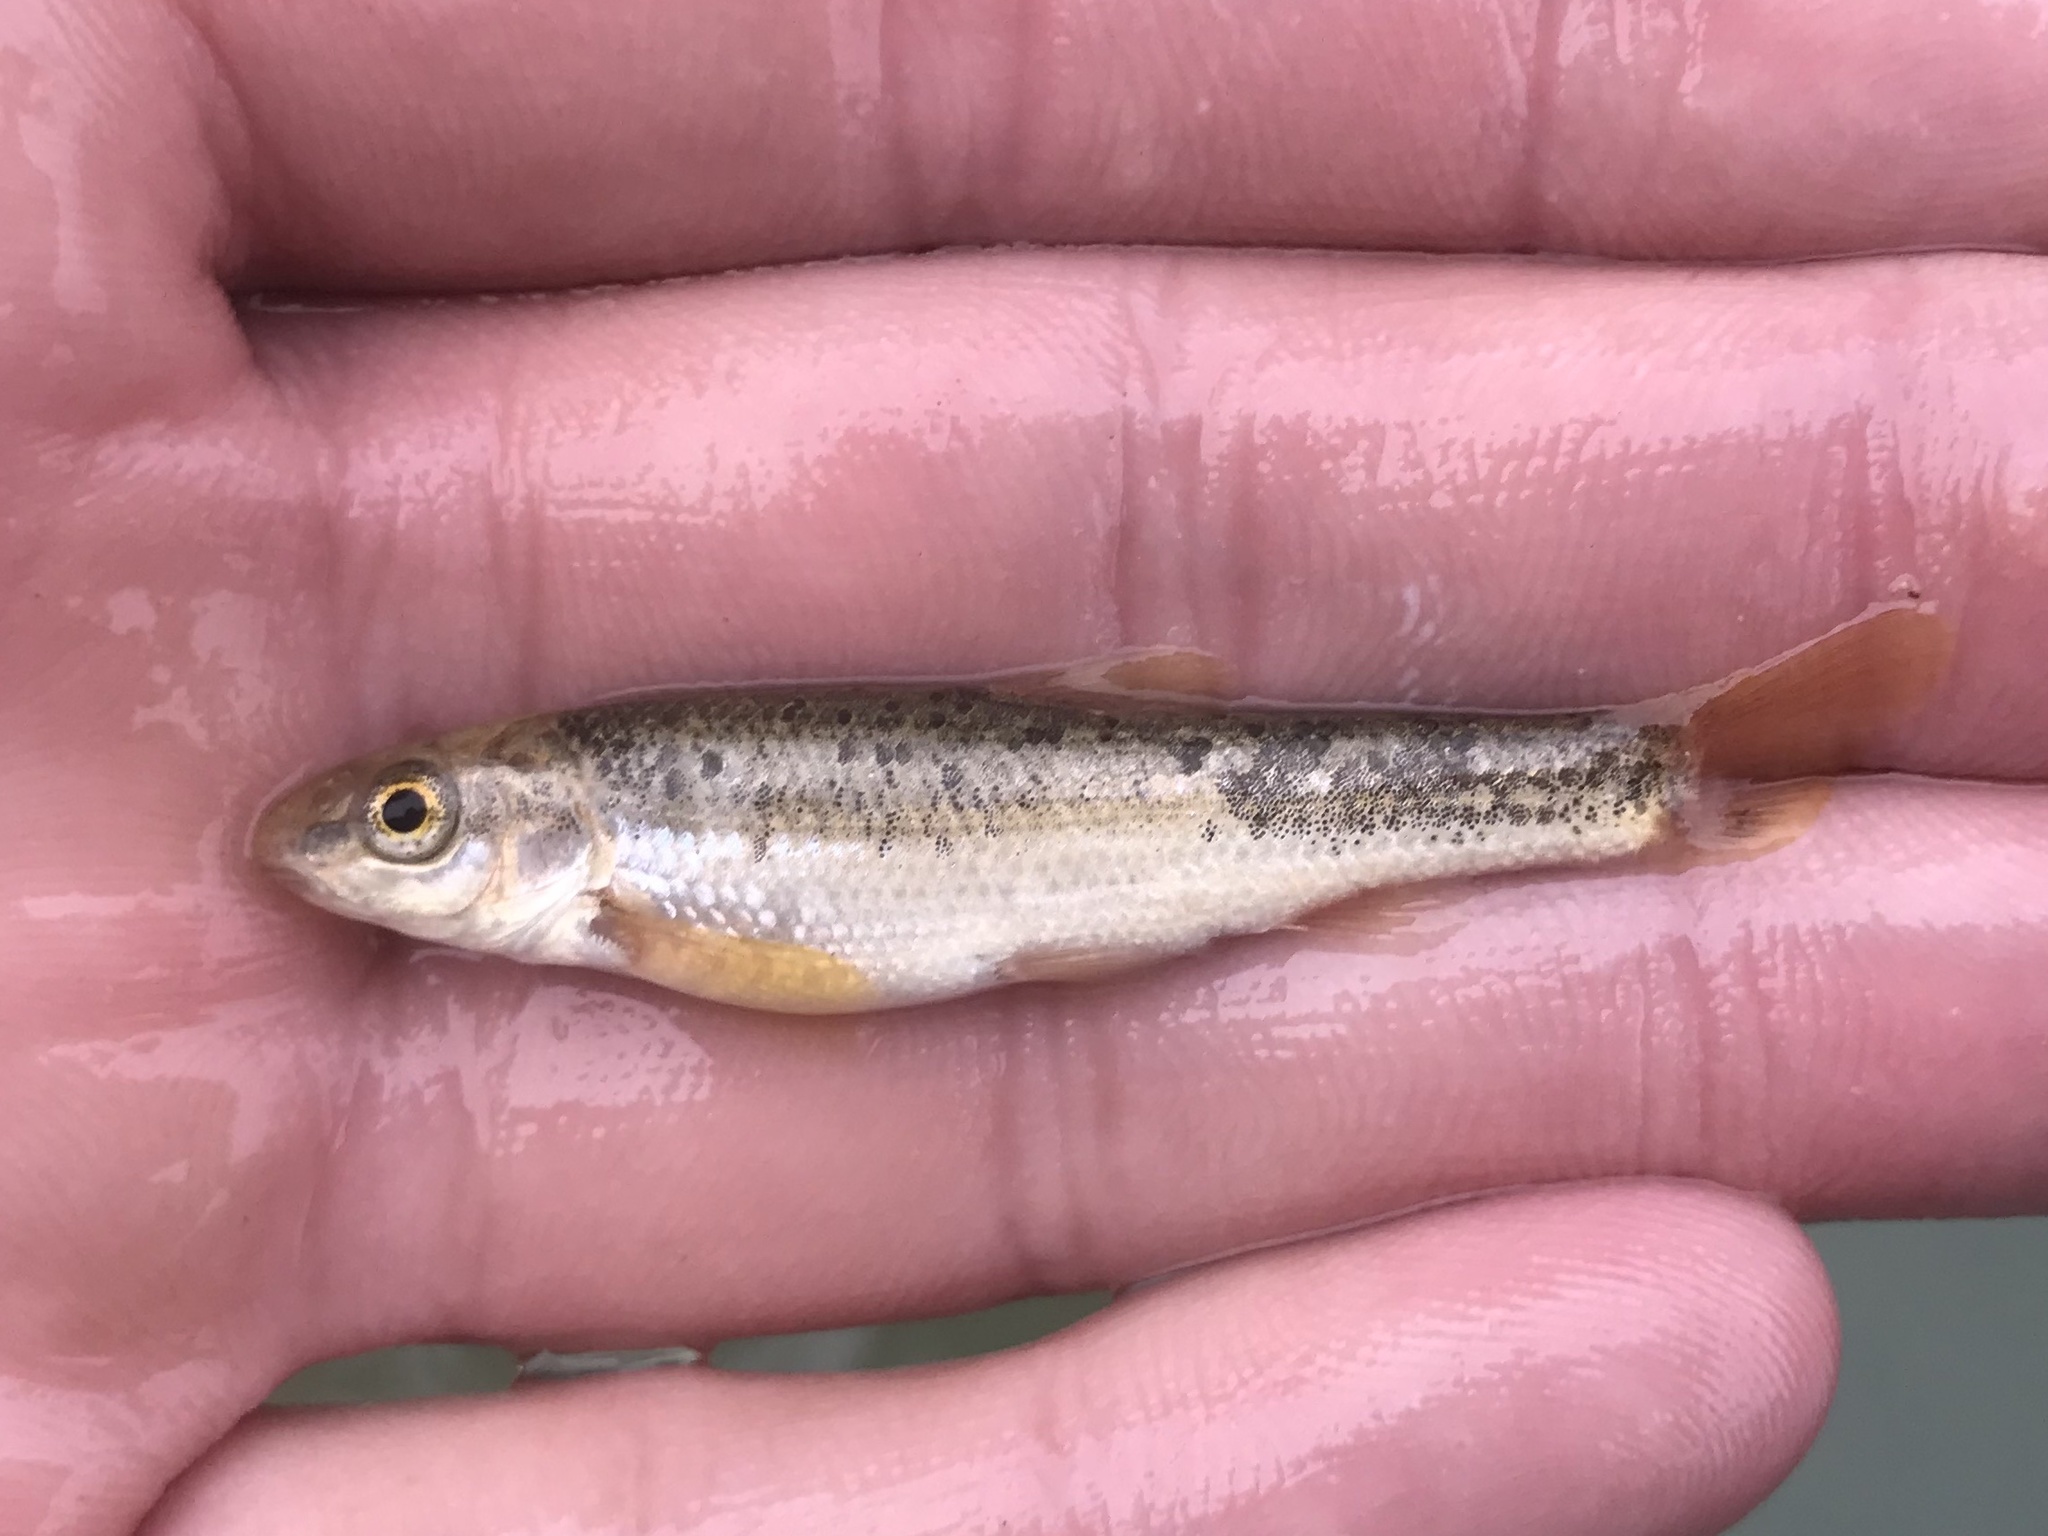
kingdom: Animalia
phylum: Chordata
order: Cypriniformes
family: Cyprinidae
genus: Campostoma
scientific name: Campostoma anomalum
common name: Central stoneroller
